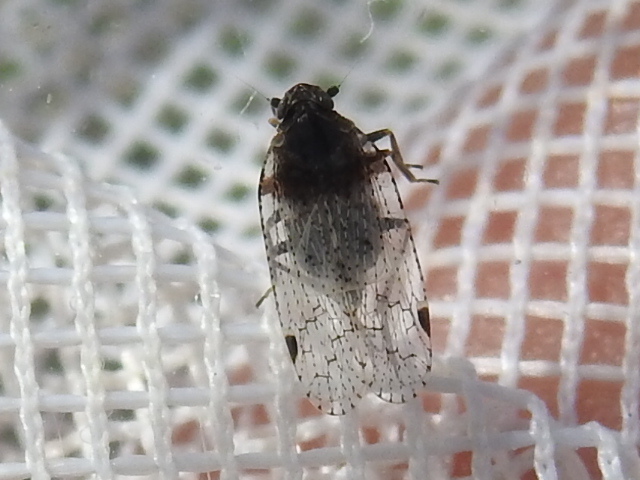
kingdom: Animalia
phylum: Arthropoda
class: Insecta
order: Hemiptera
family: Cixiidae
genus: Cixius
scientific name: Cixius stigmatus
